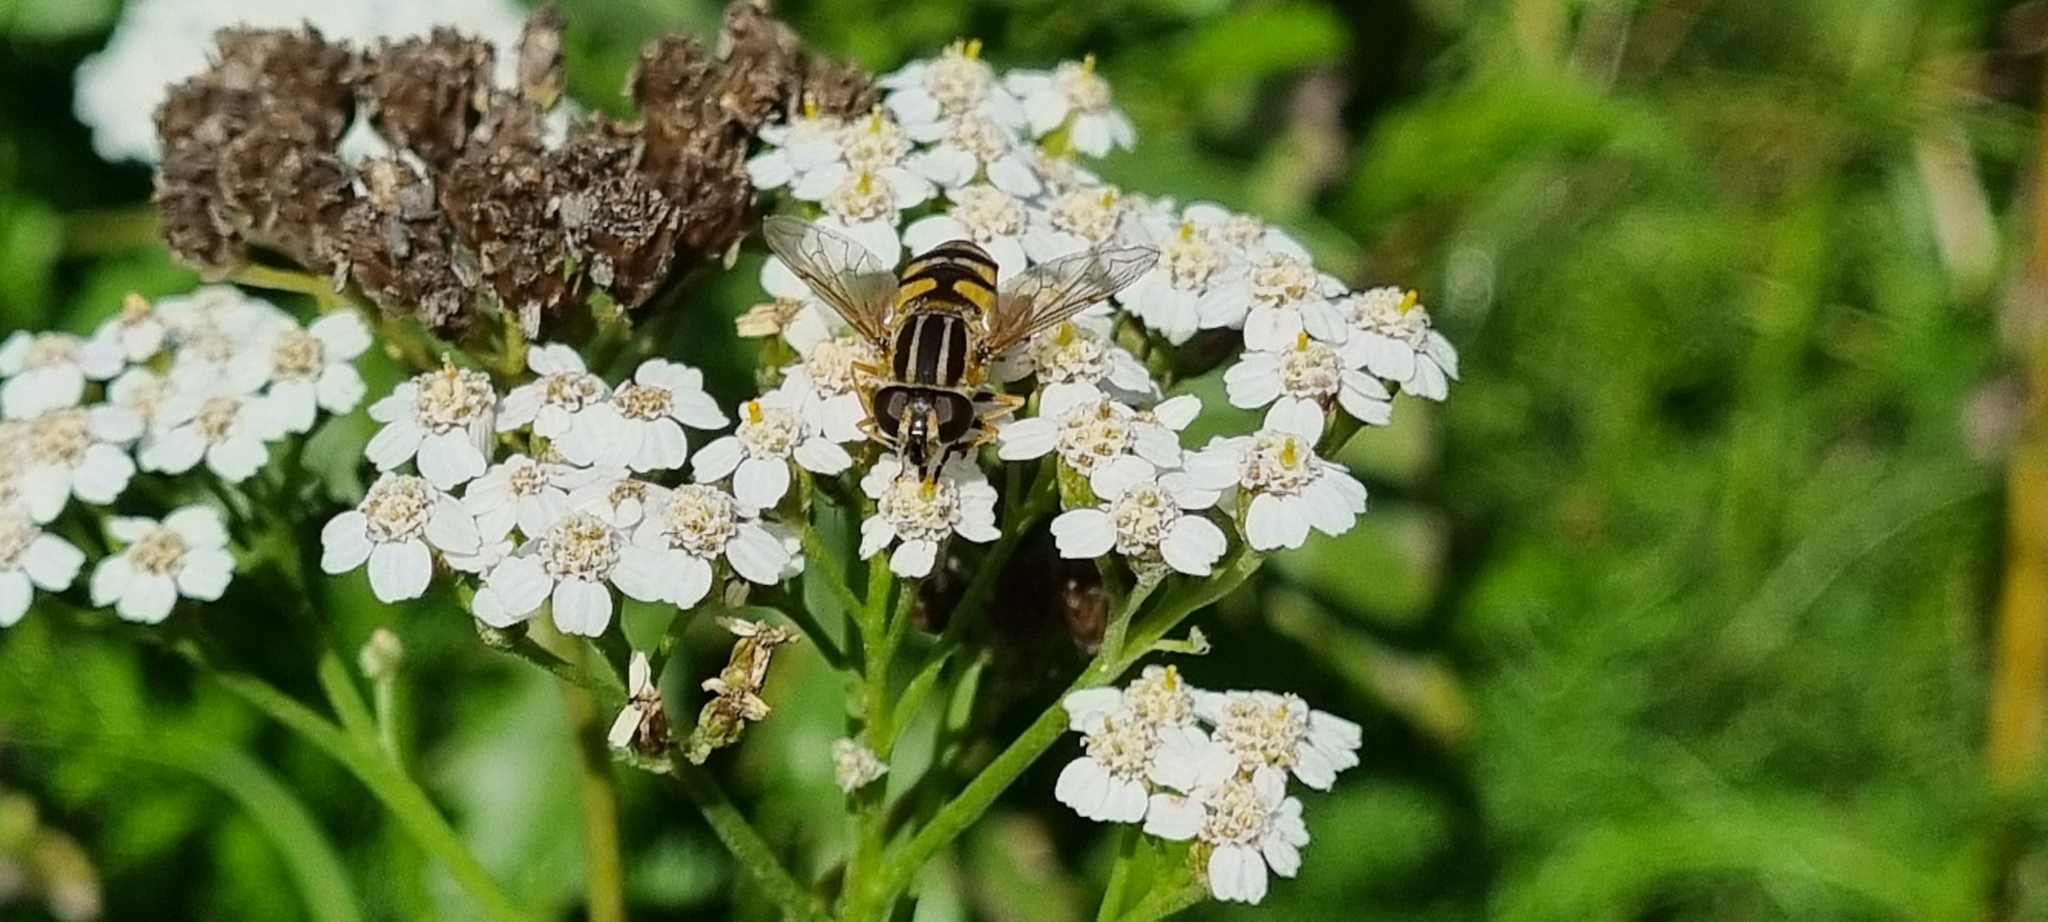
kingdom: Animalia
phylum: Arthropoda
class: Insecta
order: Diptera
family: Syrphidae
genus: Helophilus
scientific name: Helophilus pendulus
